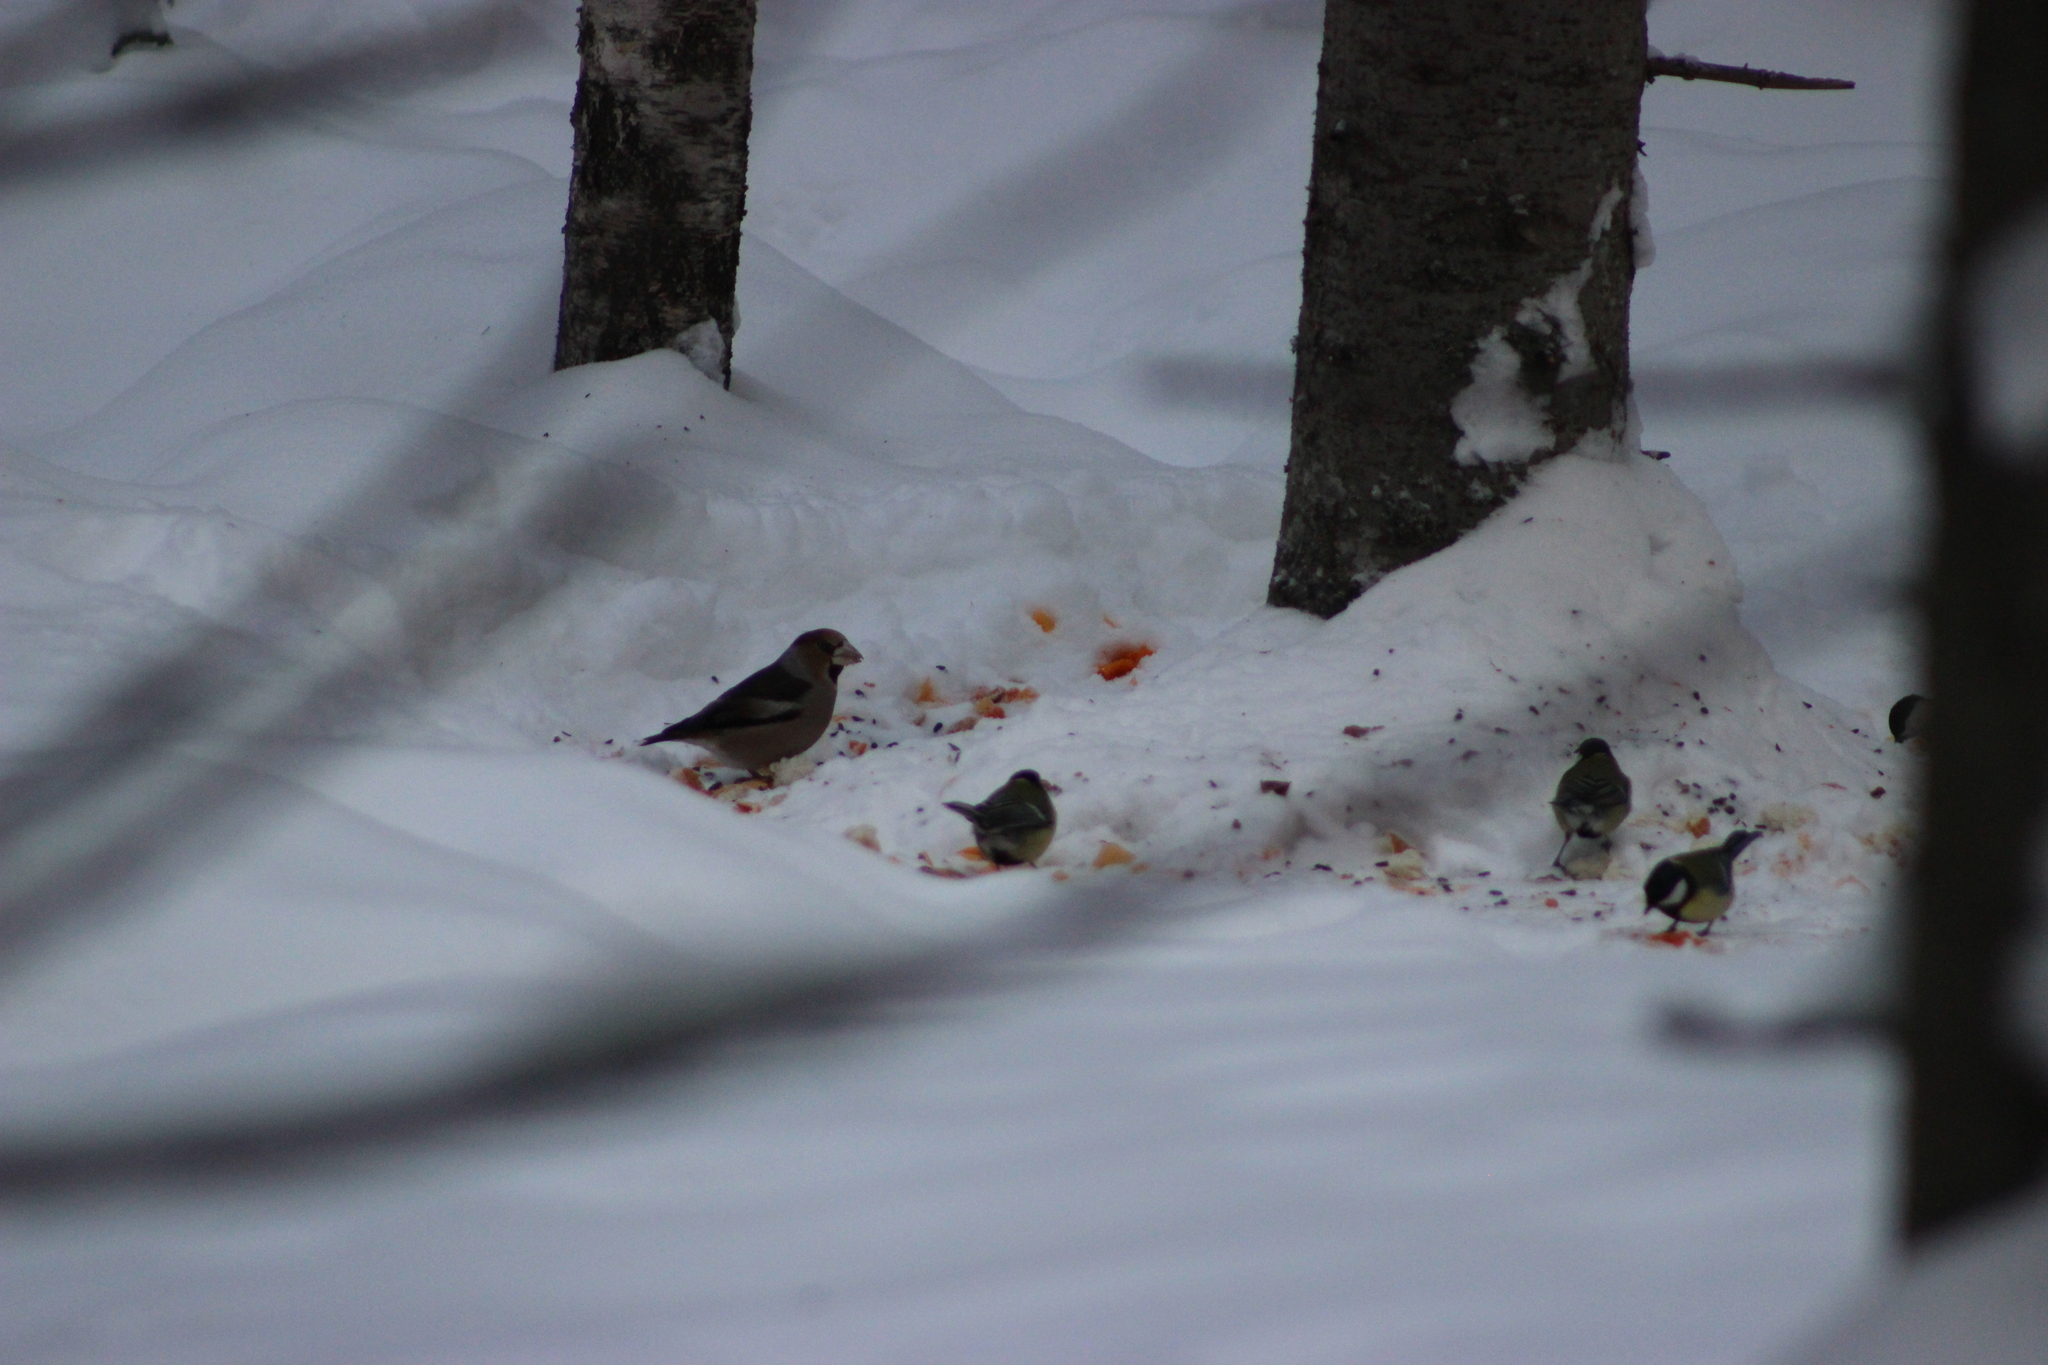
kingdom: Animalia
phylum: Chordata
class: Aves
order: Passeriformes
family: Fringillidae
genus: Coccothraustes
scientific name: Coccothraustes coccothraustes
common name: Hawfinch
